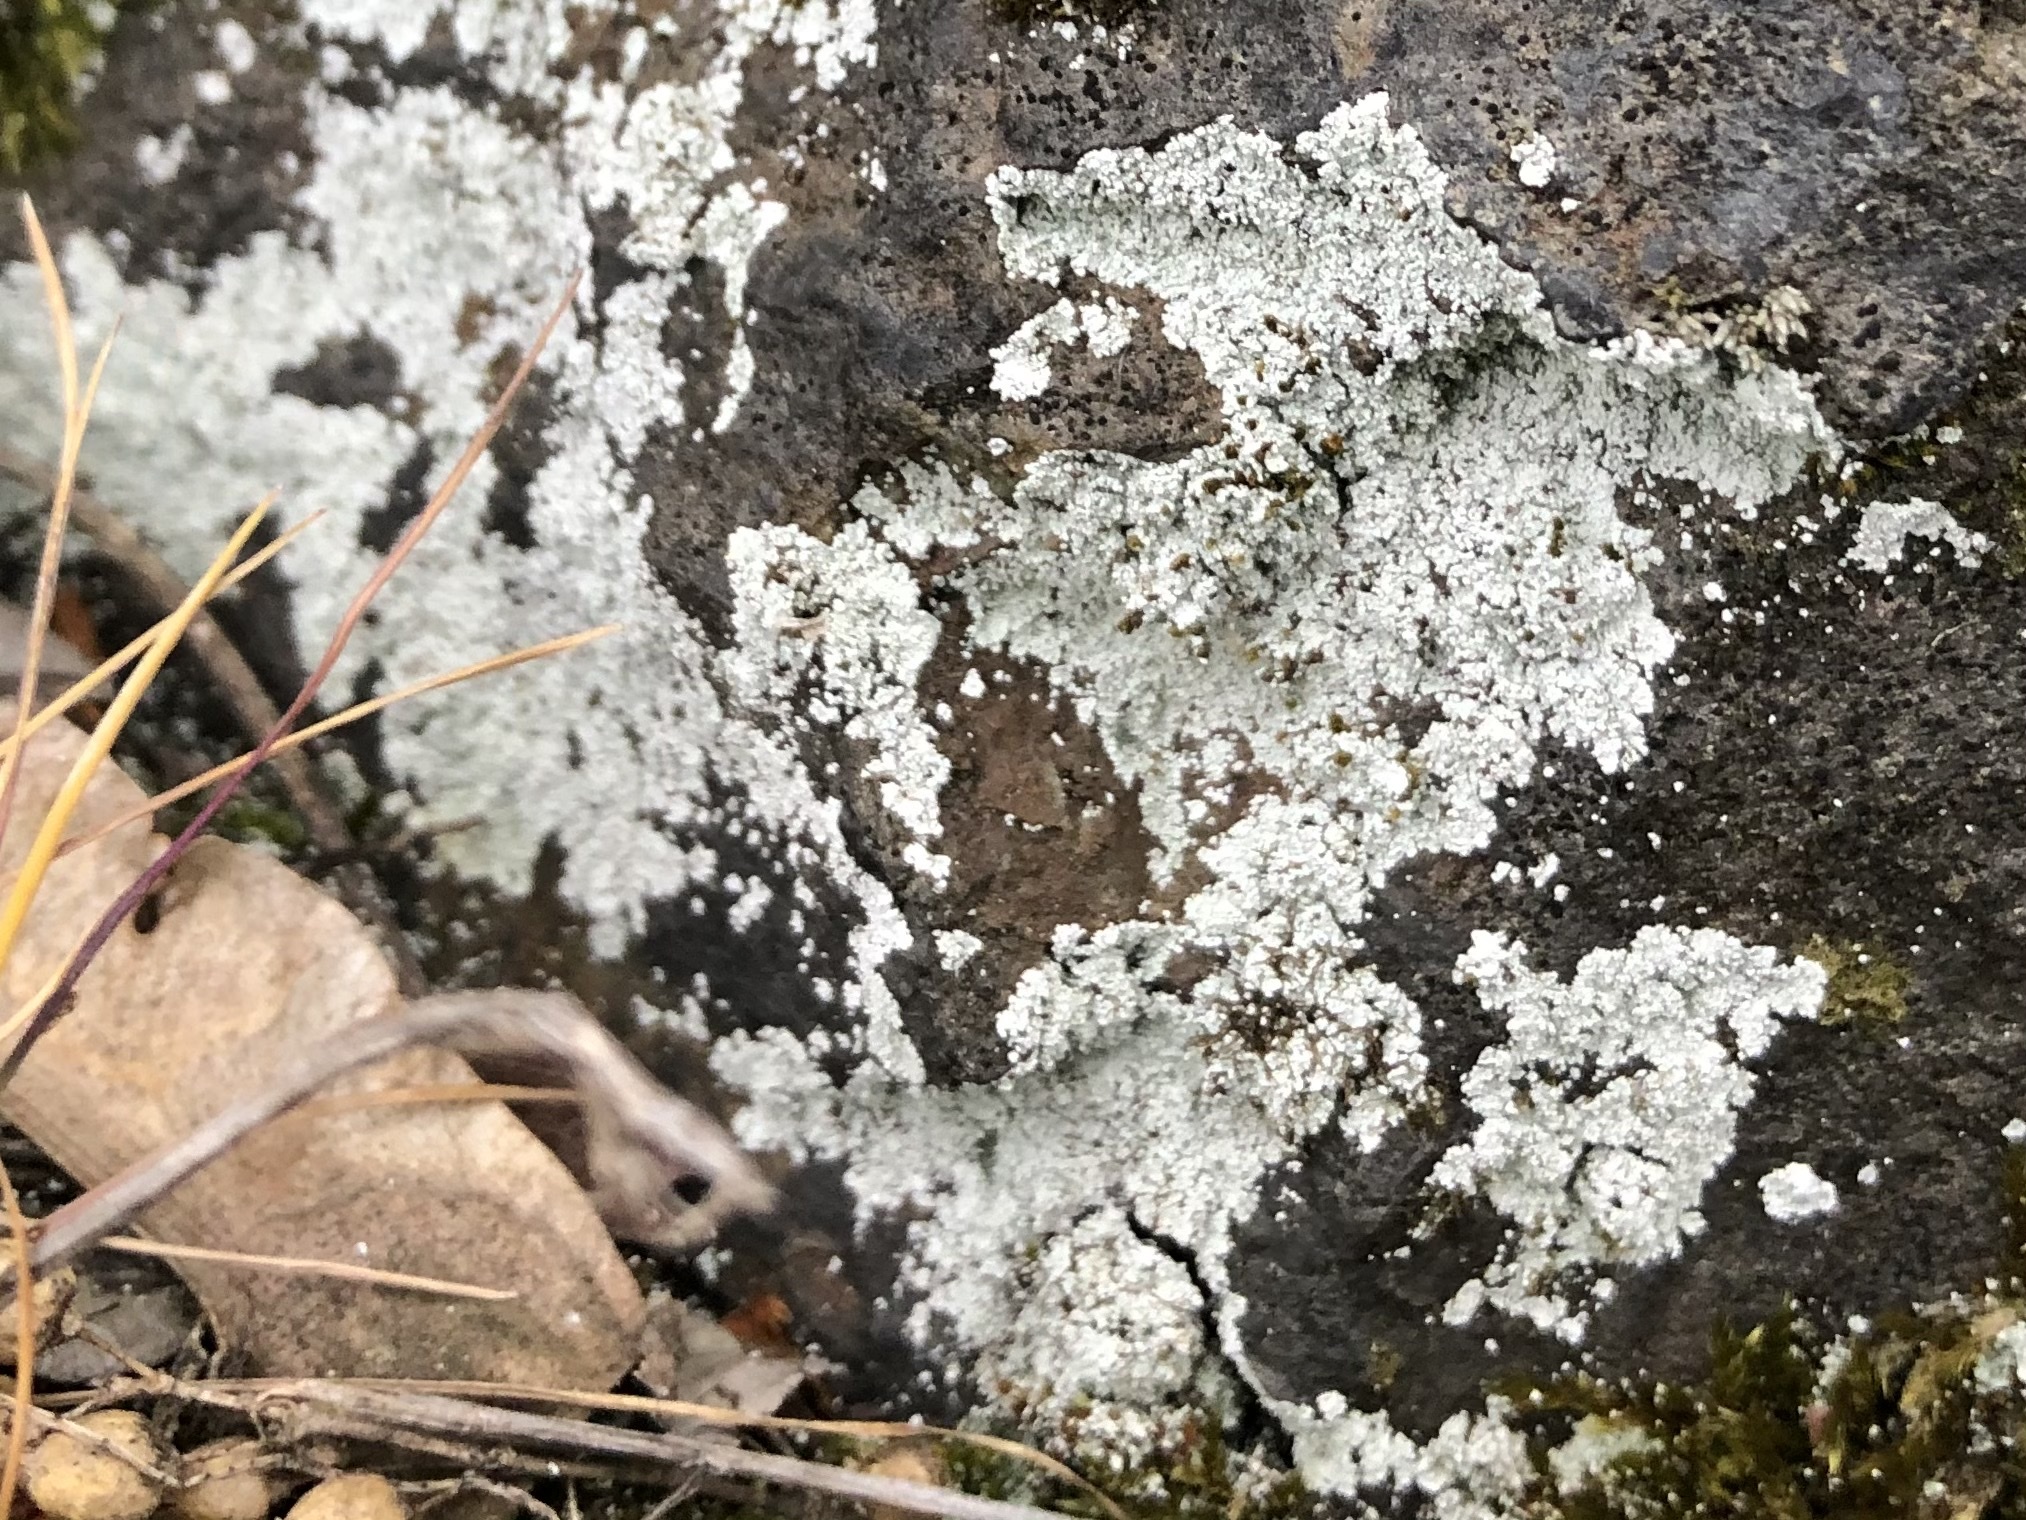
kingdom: Fungi
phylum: Ascomycota
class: Lecanoromycetes
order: Lecanorales
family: Stereocaulaceae
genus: Lepraria
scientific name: Lepraria
